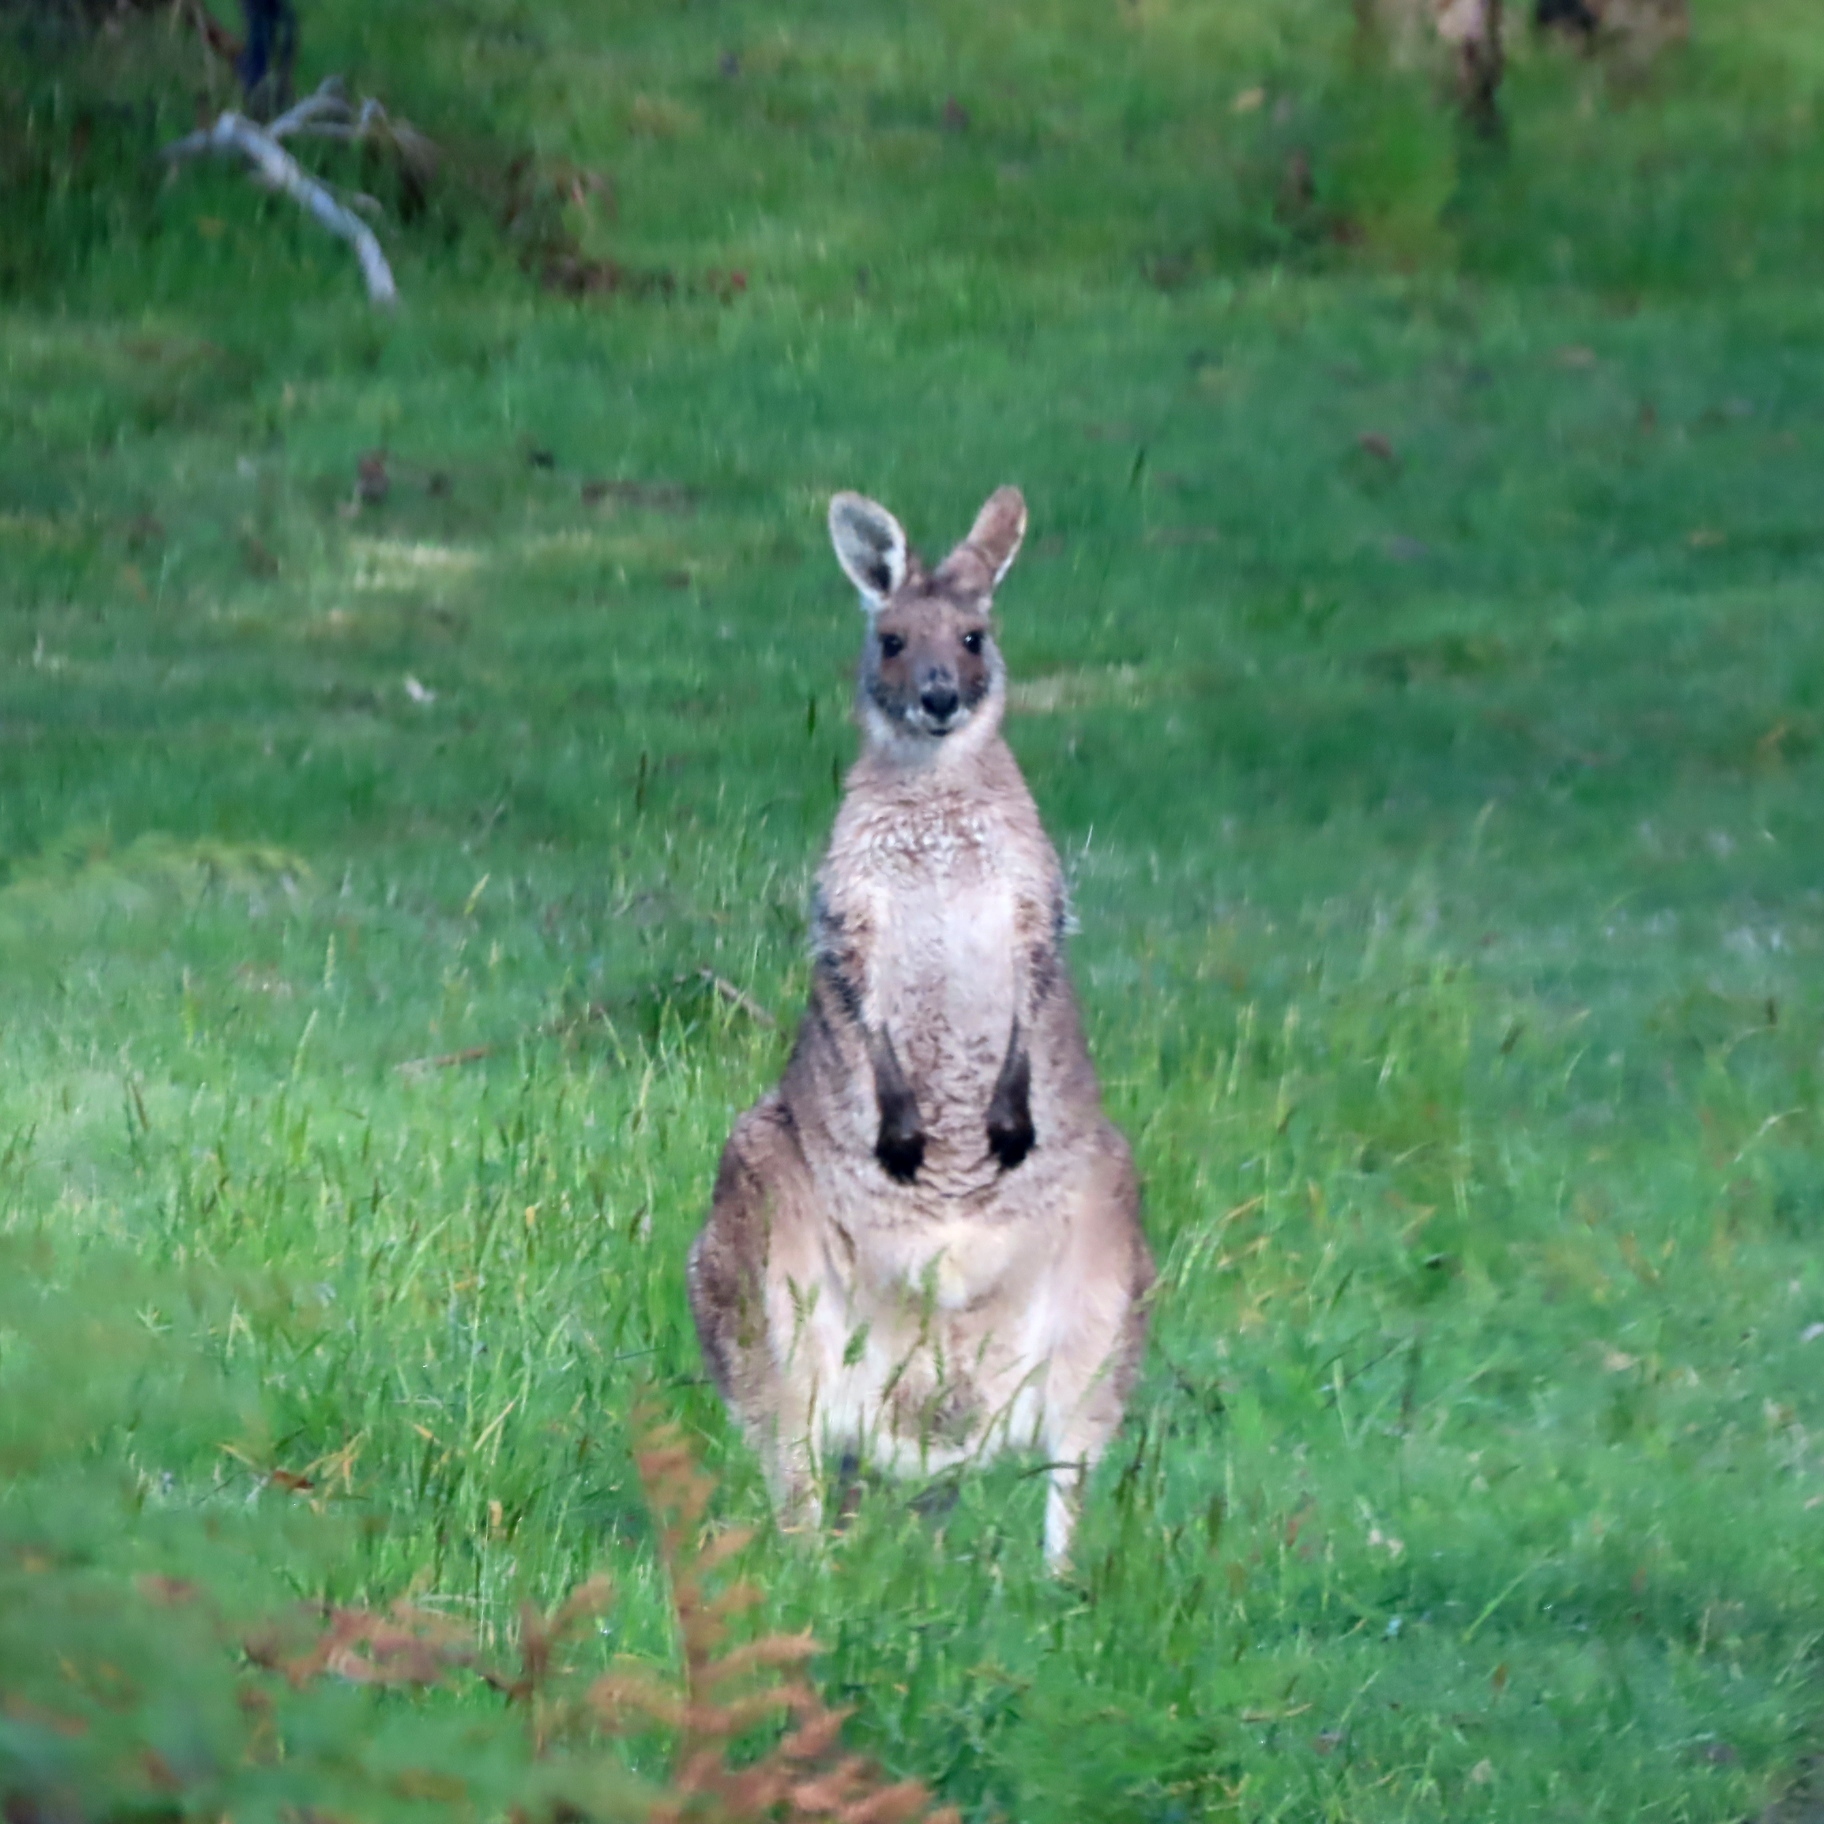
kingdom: Animalia
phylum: Chordata
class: Mammalia
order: Diprotodontia
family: Macropodidae
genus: Macropus
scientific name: Macropus giganteus
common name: Eastern grey kangaroo
